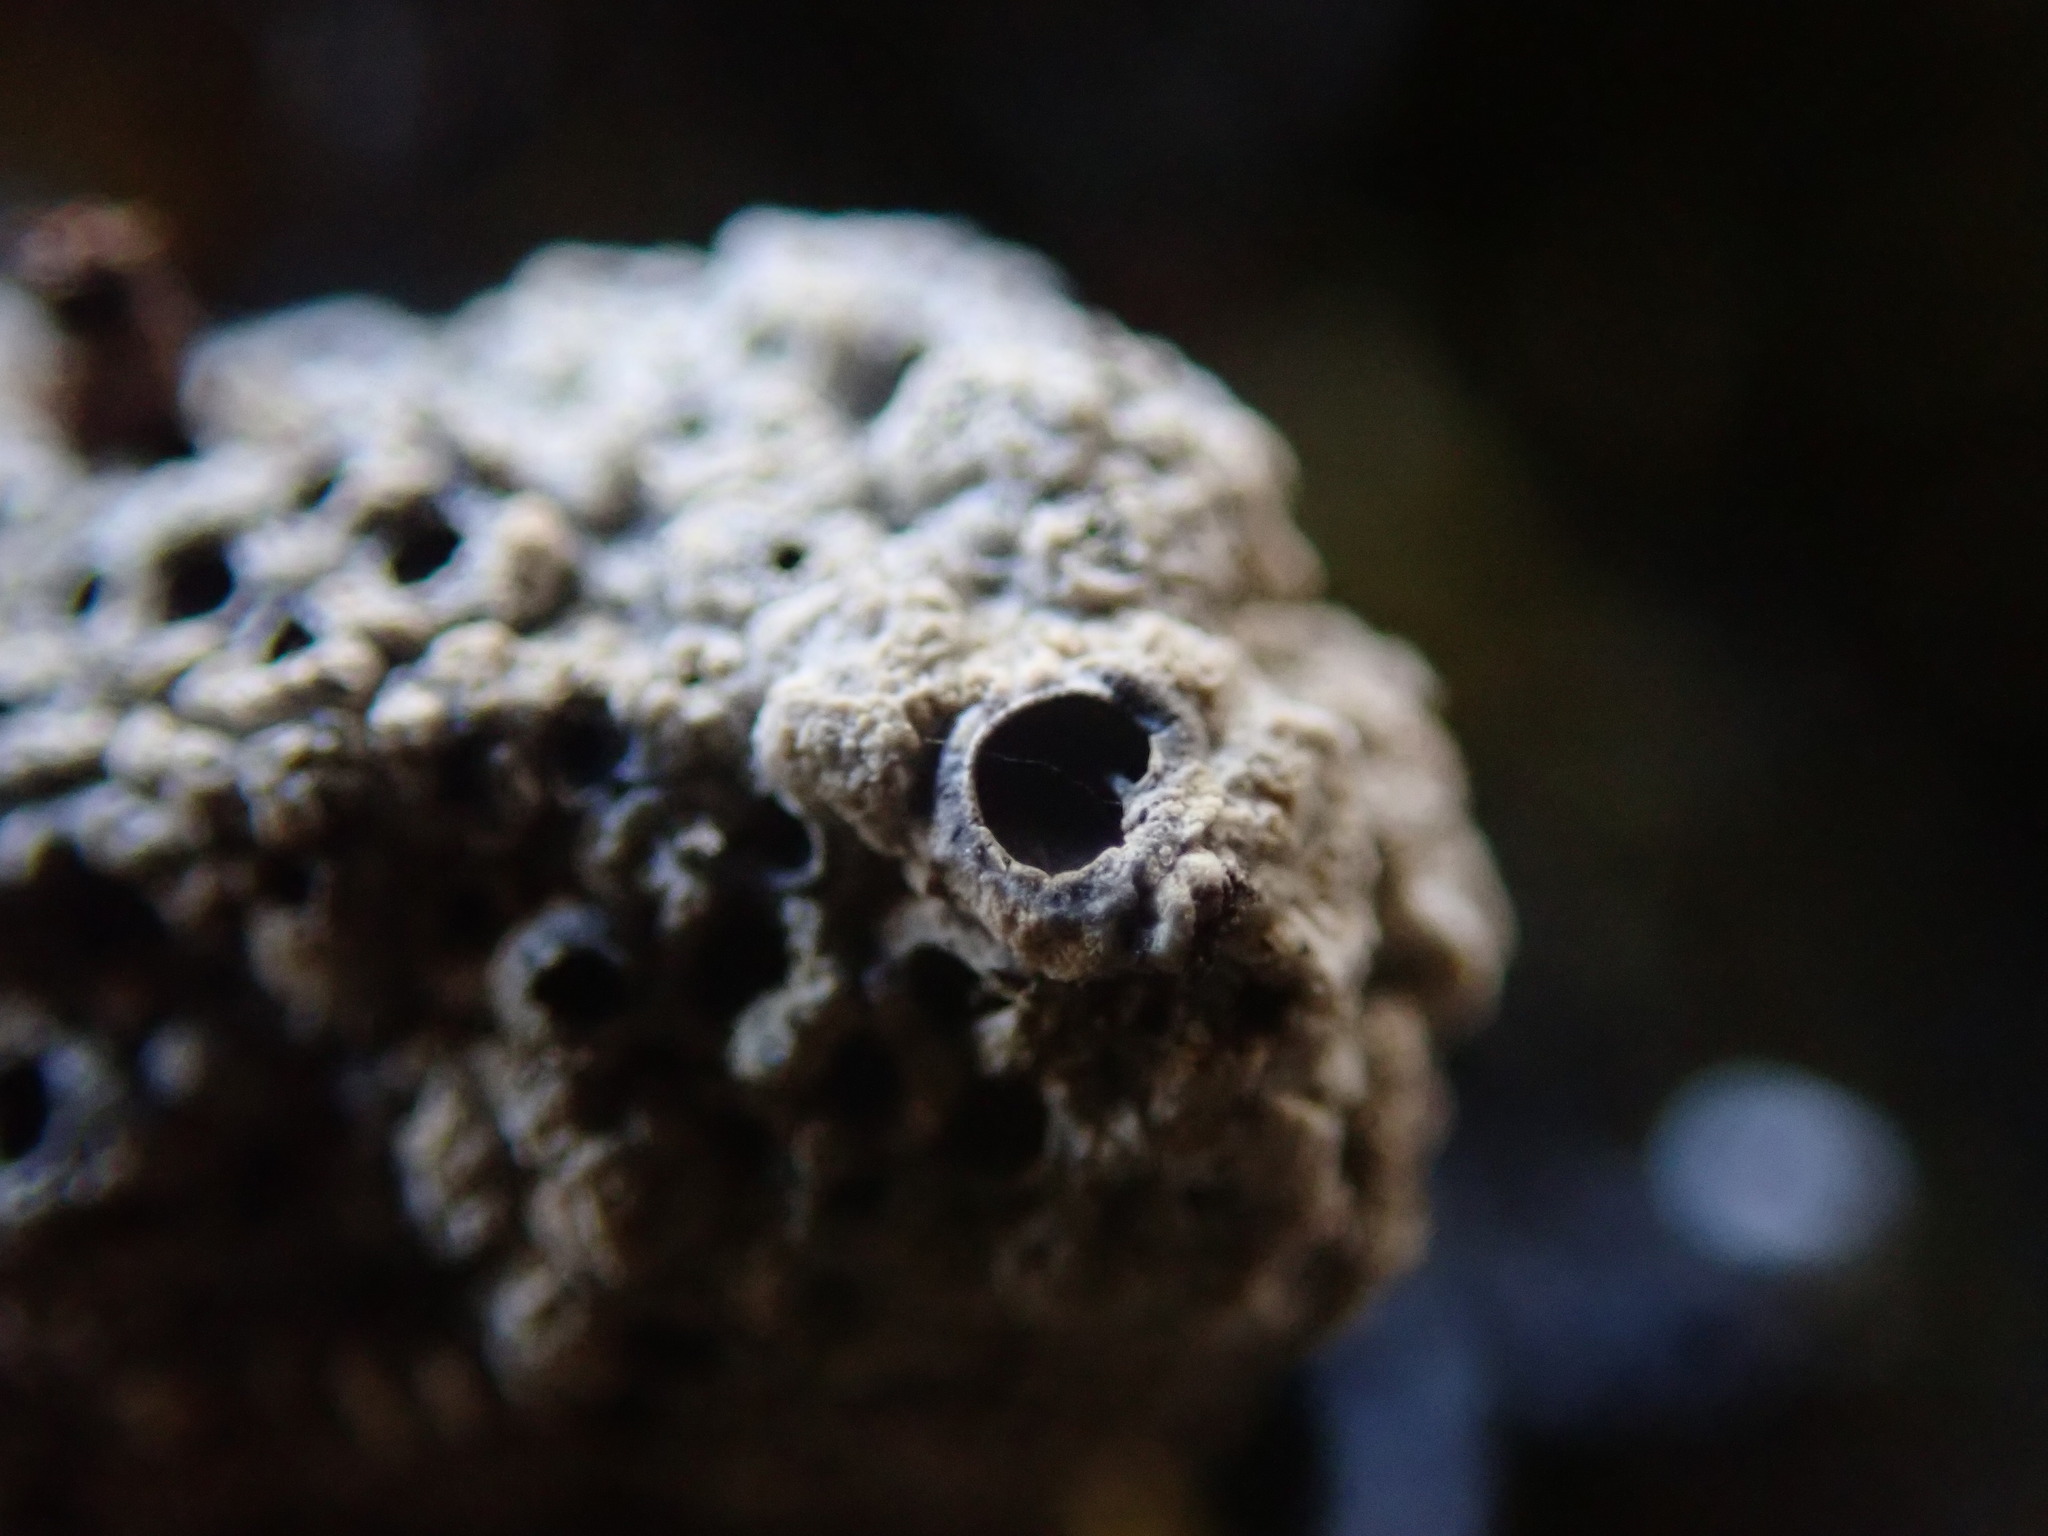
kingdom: Fungi
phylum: Ascomycota
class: Lecanoromycetes
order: Ostropales
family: Graphidaceae
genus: Diploschistes
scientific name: Diploschistes muscorum
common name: Cowpie lichen
